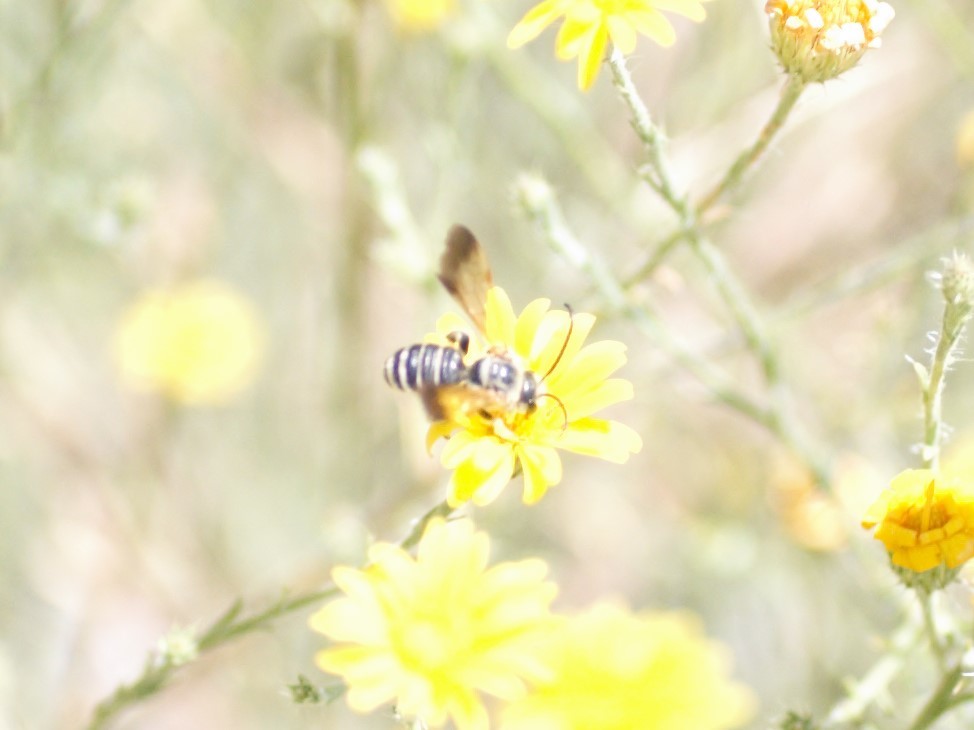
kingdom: Animalia
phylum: Arthropoda
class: Insecta
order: Hymenoptera
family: Halictidae
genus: Dieunomia
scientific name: Dieunomia nevadensis
